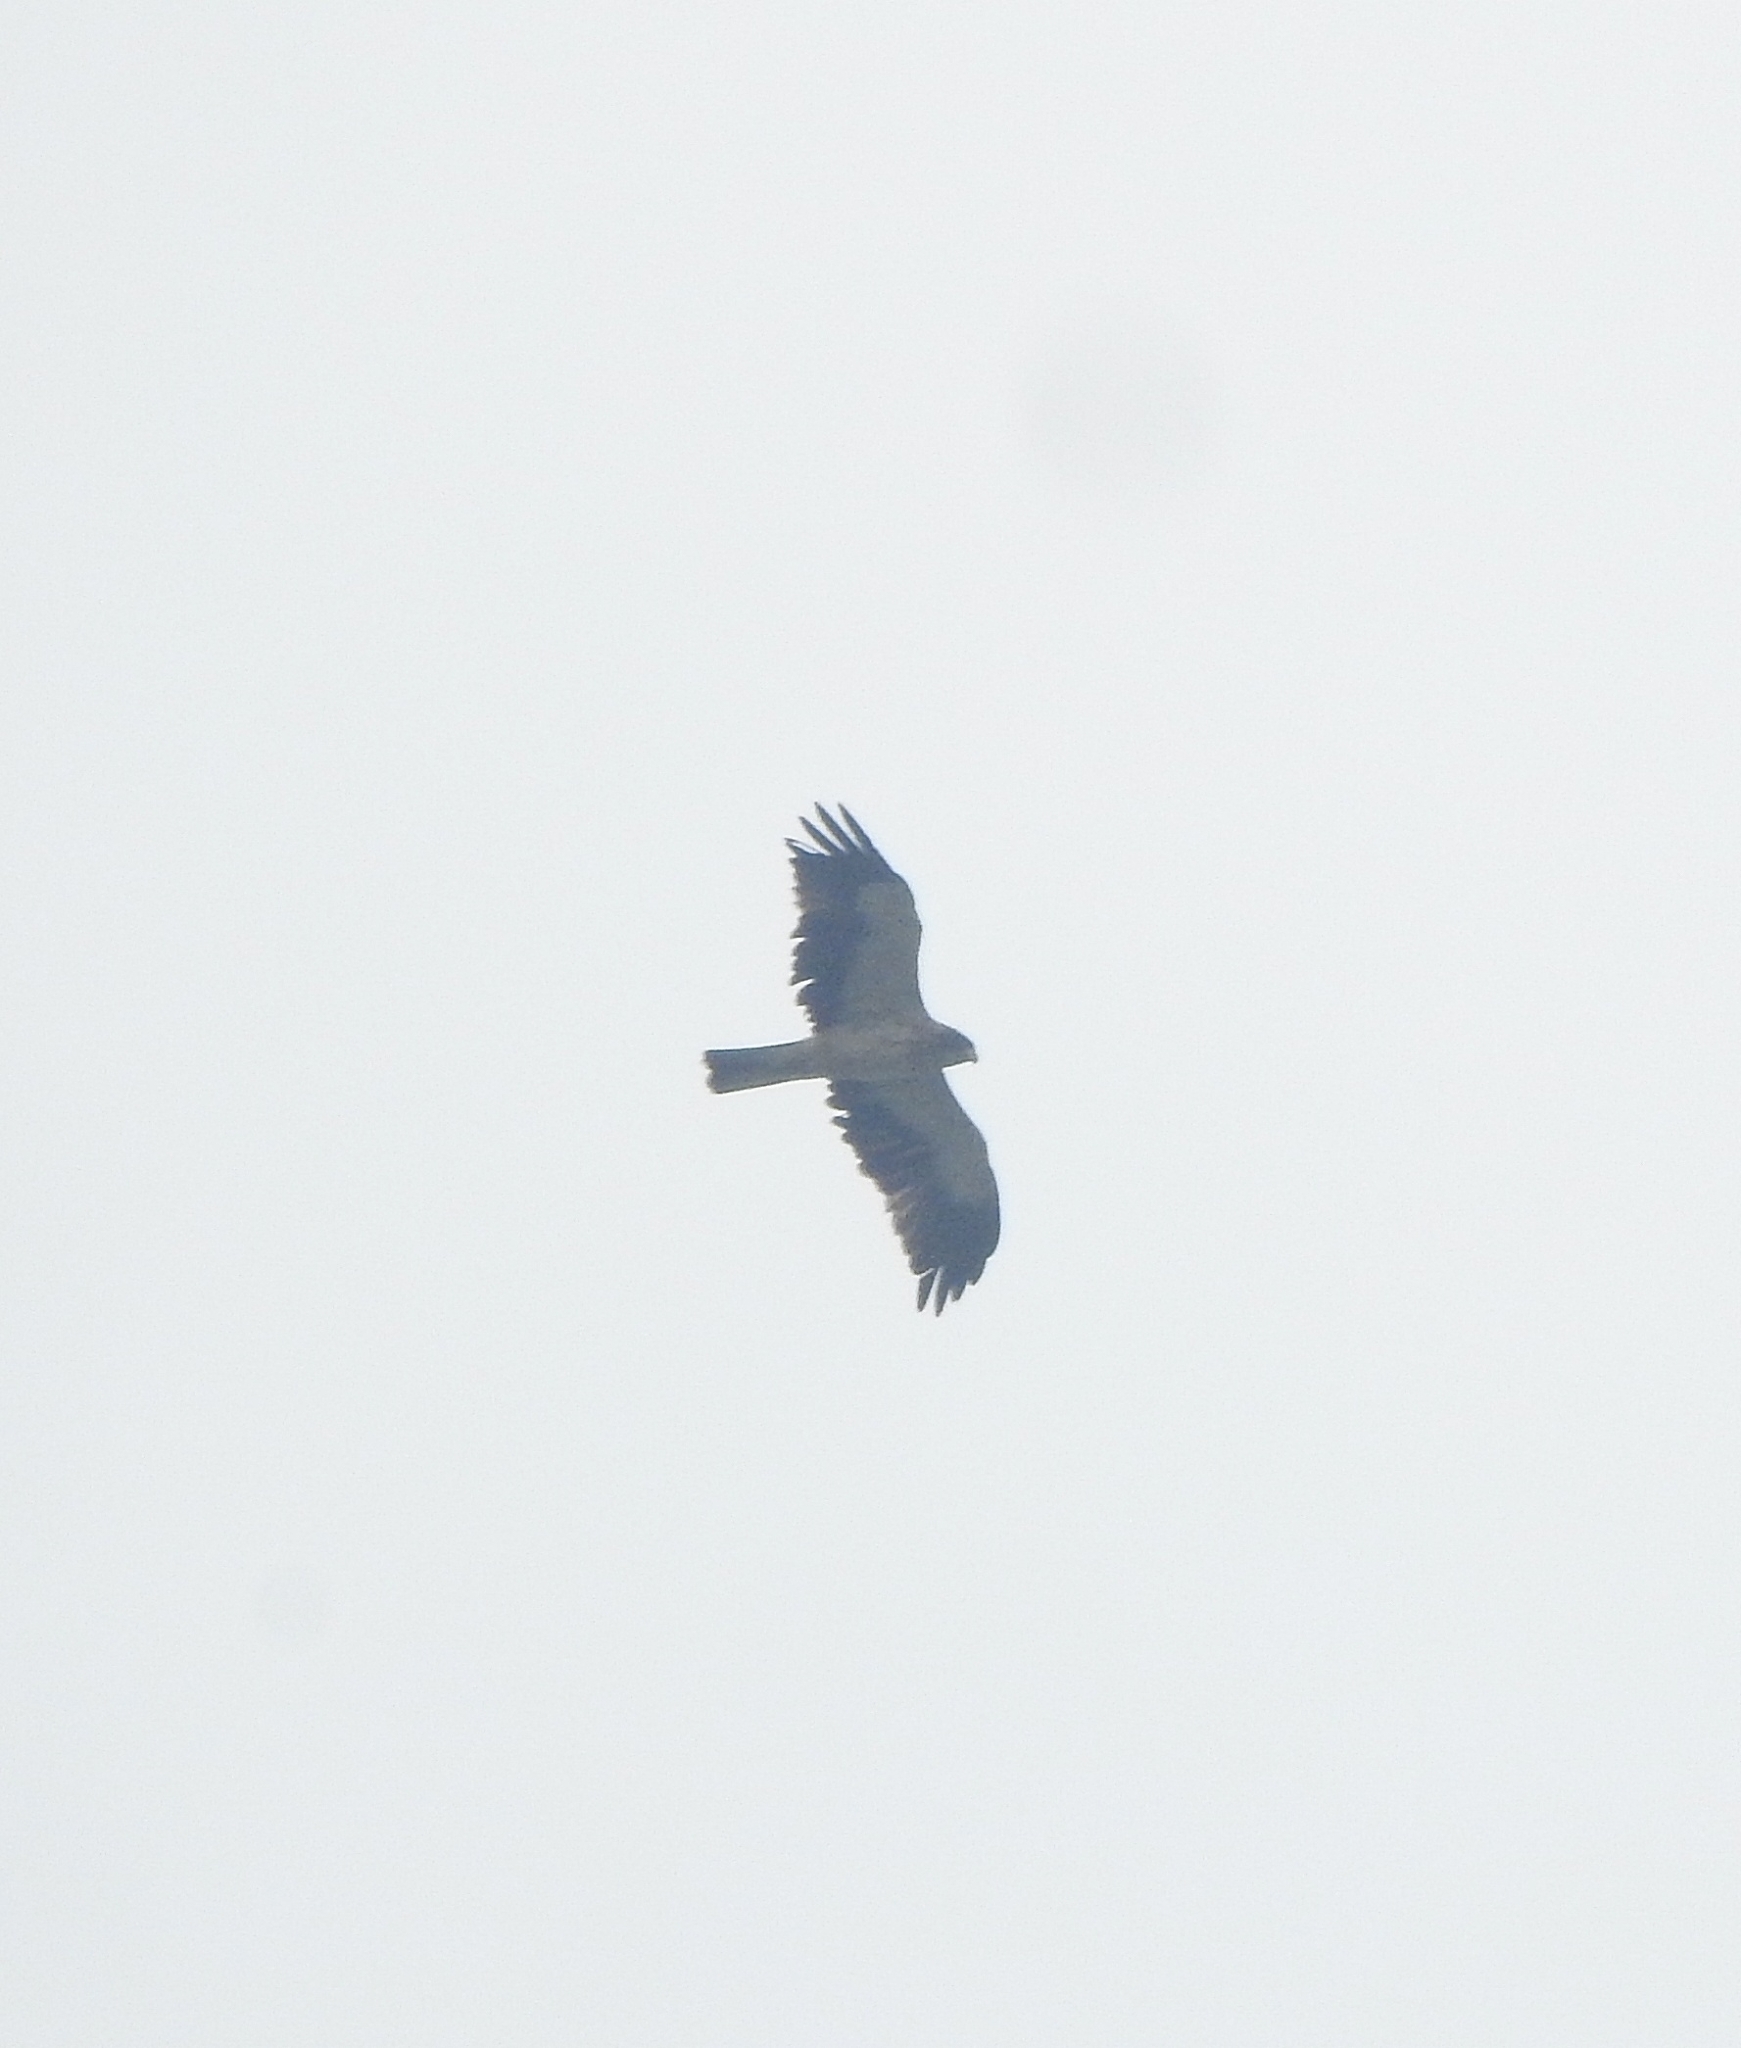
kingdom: Animalia
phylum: Chordata
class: Aves
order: Accipitriformes
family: Accipitridae
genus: Hieraaetus
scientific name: Hieraaetus pennatus
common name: Booted eagle
